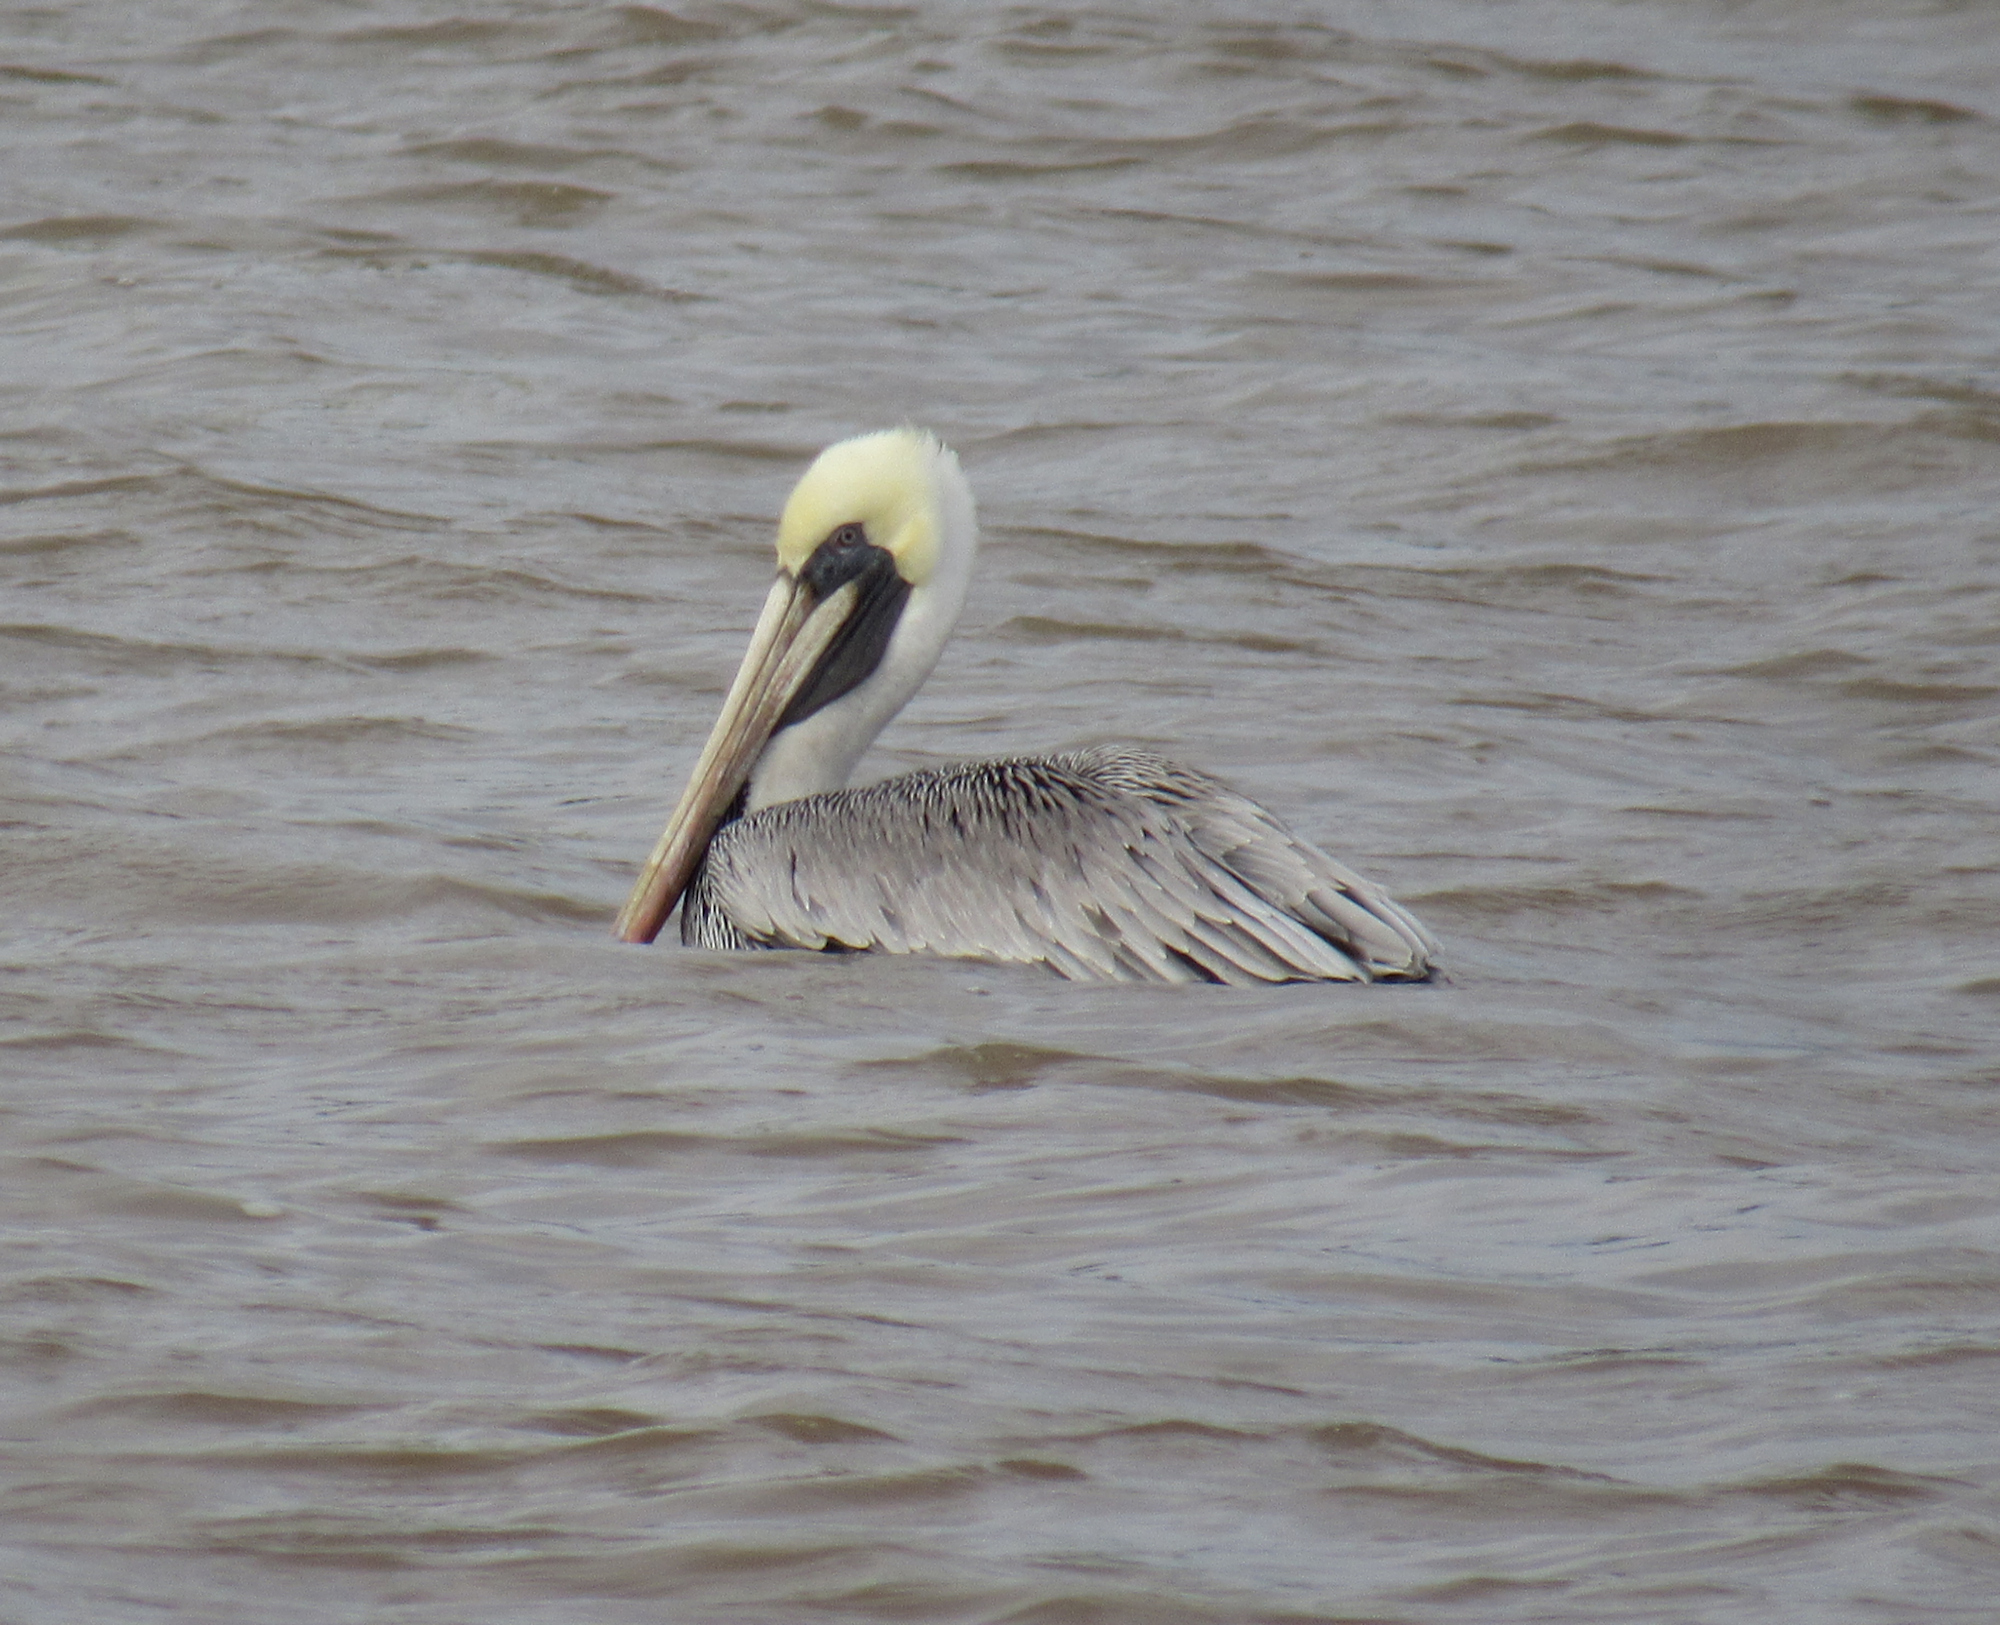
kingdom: Animalia
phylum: Chordata
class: Aves
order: Pelecaniformes
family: Pelecanidae
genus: Pelecanus
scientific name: Pelecanus occidentalis
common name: Brown pelican
